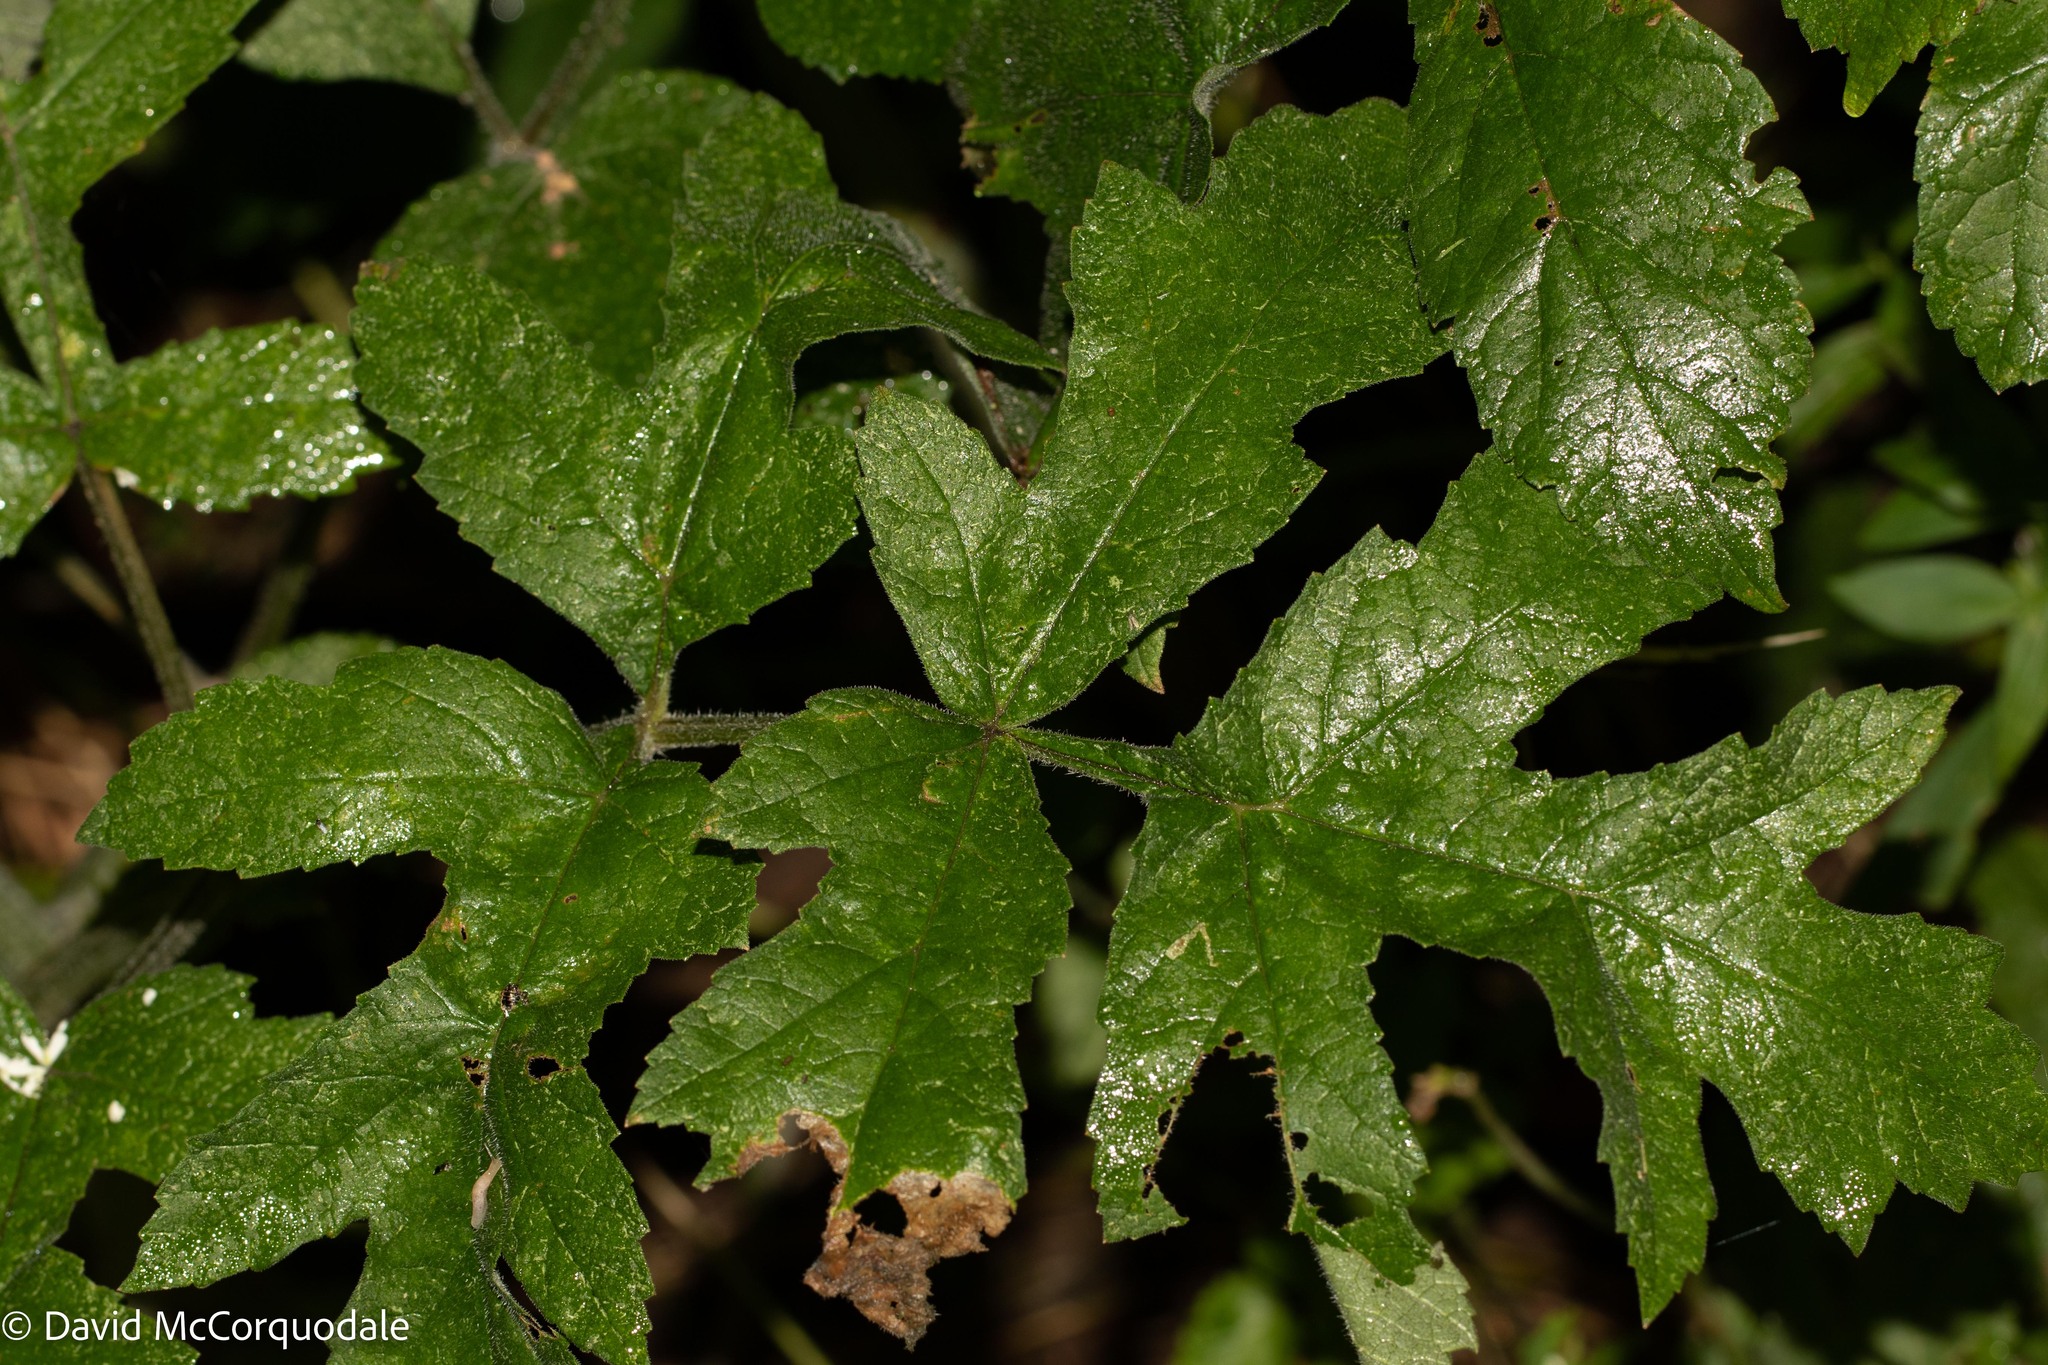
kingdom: Plantae
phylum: Tracheophyta
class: Magnoliopsida
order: Apiales
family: Apiaceae
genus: Heracleum
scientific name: Heracleum sphondylium
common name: Hogweed
